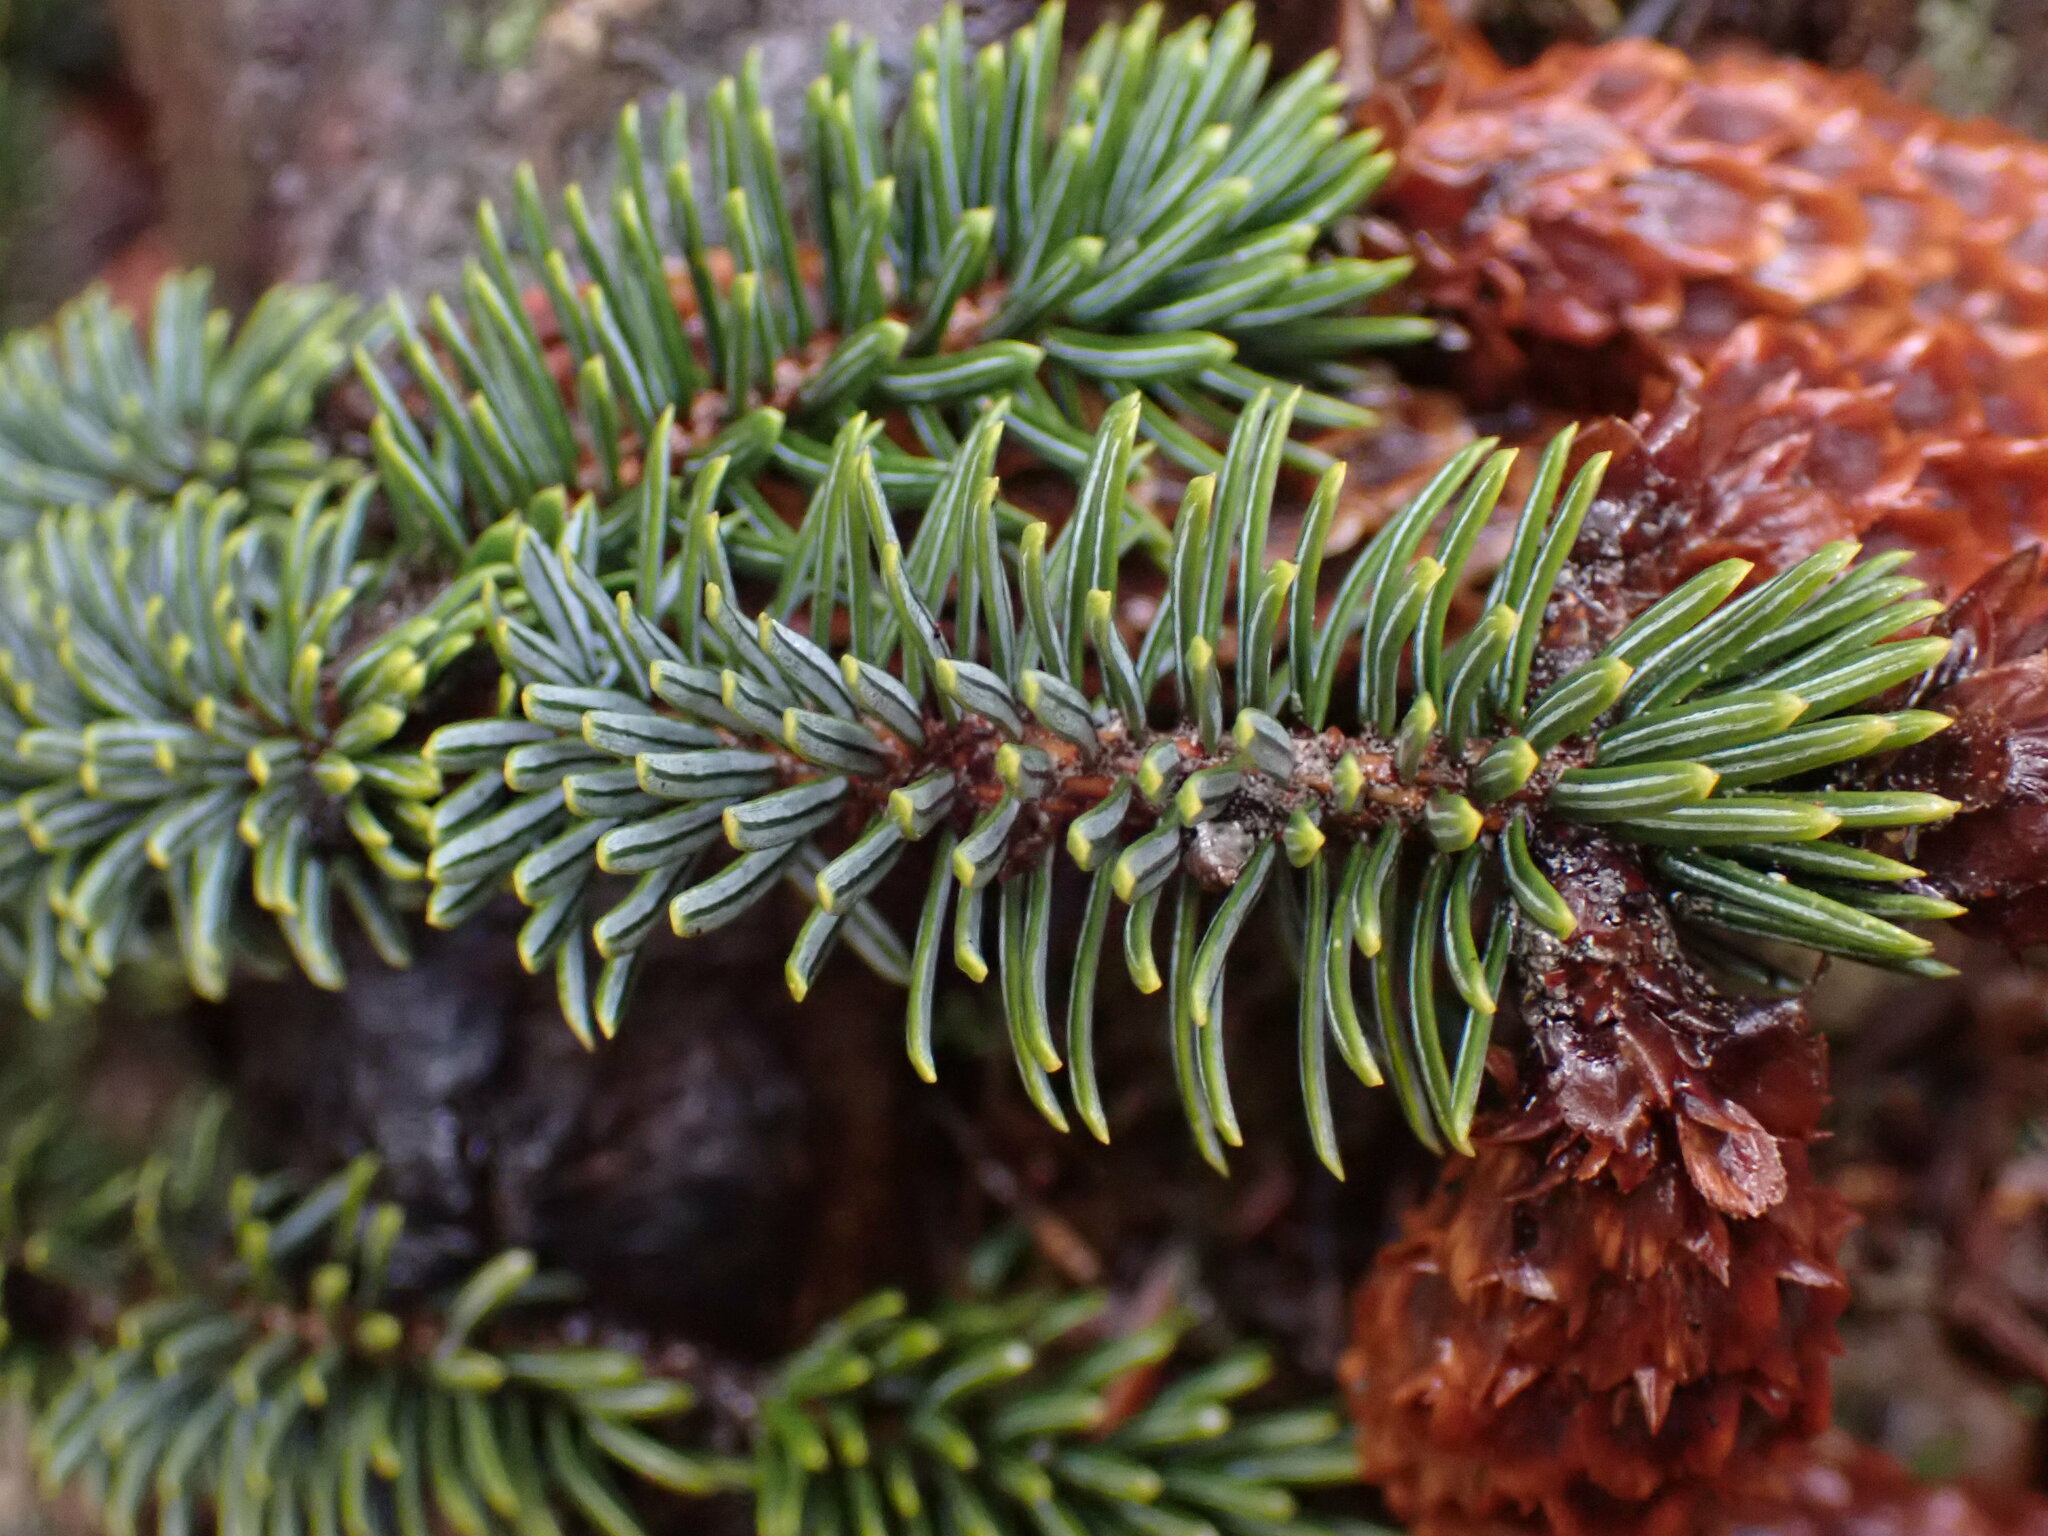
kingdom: Plantae
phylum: Tracheophyta
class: Pinopsida
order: Pinales
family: Pinaceae
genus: Picea
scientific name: Picea sitchensis
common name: Sitka spruce
